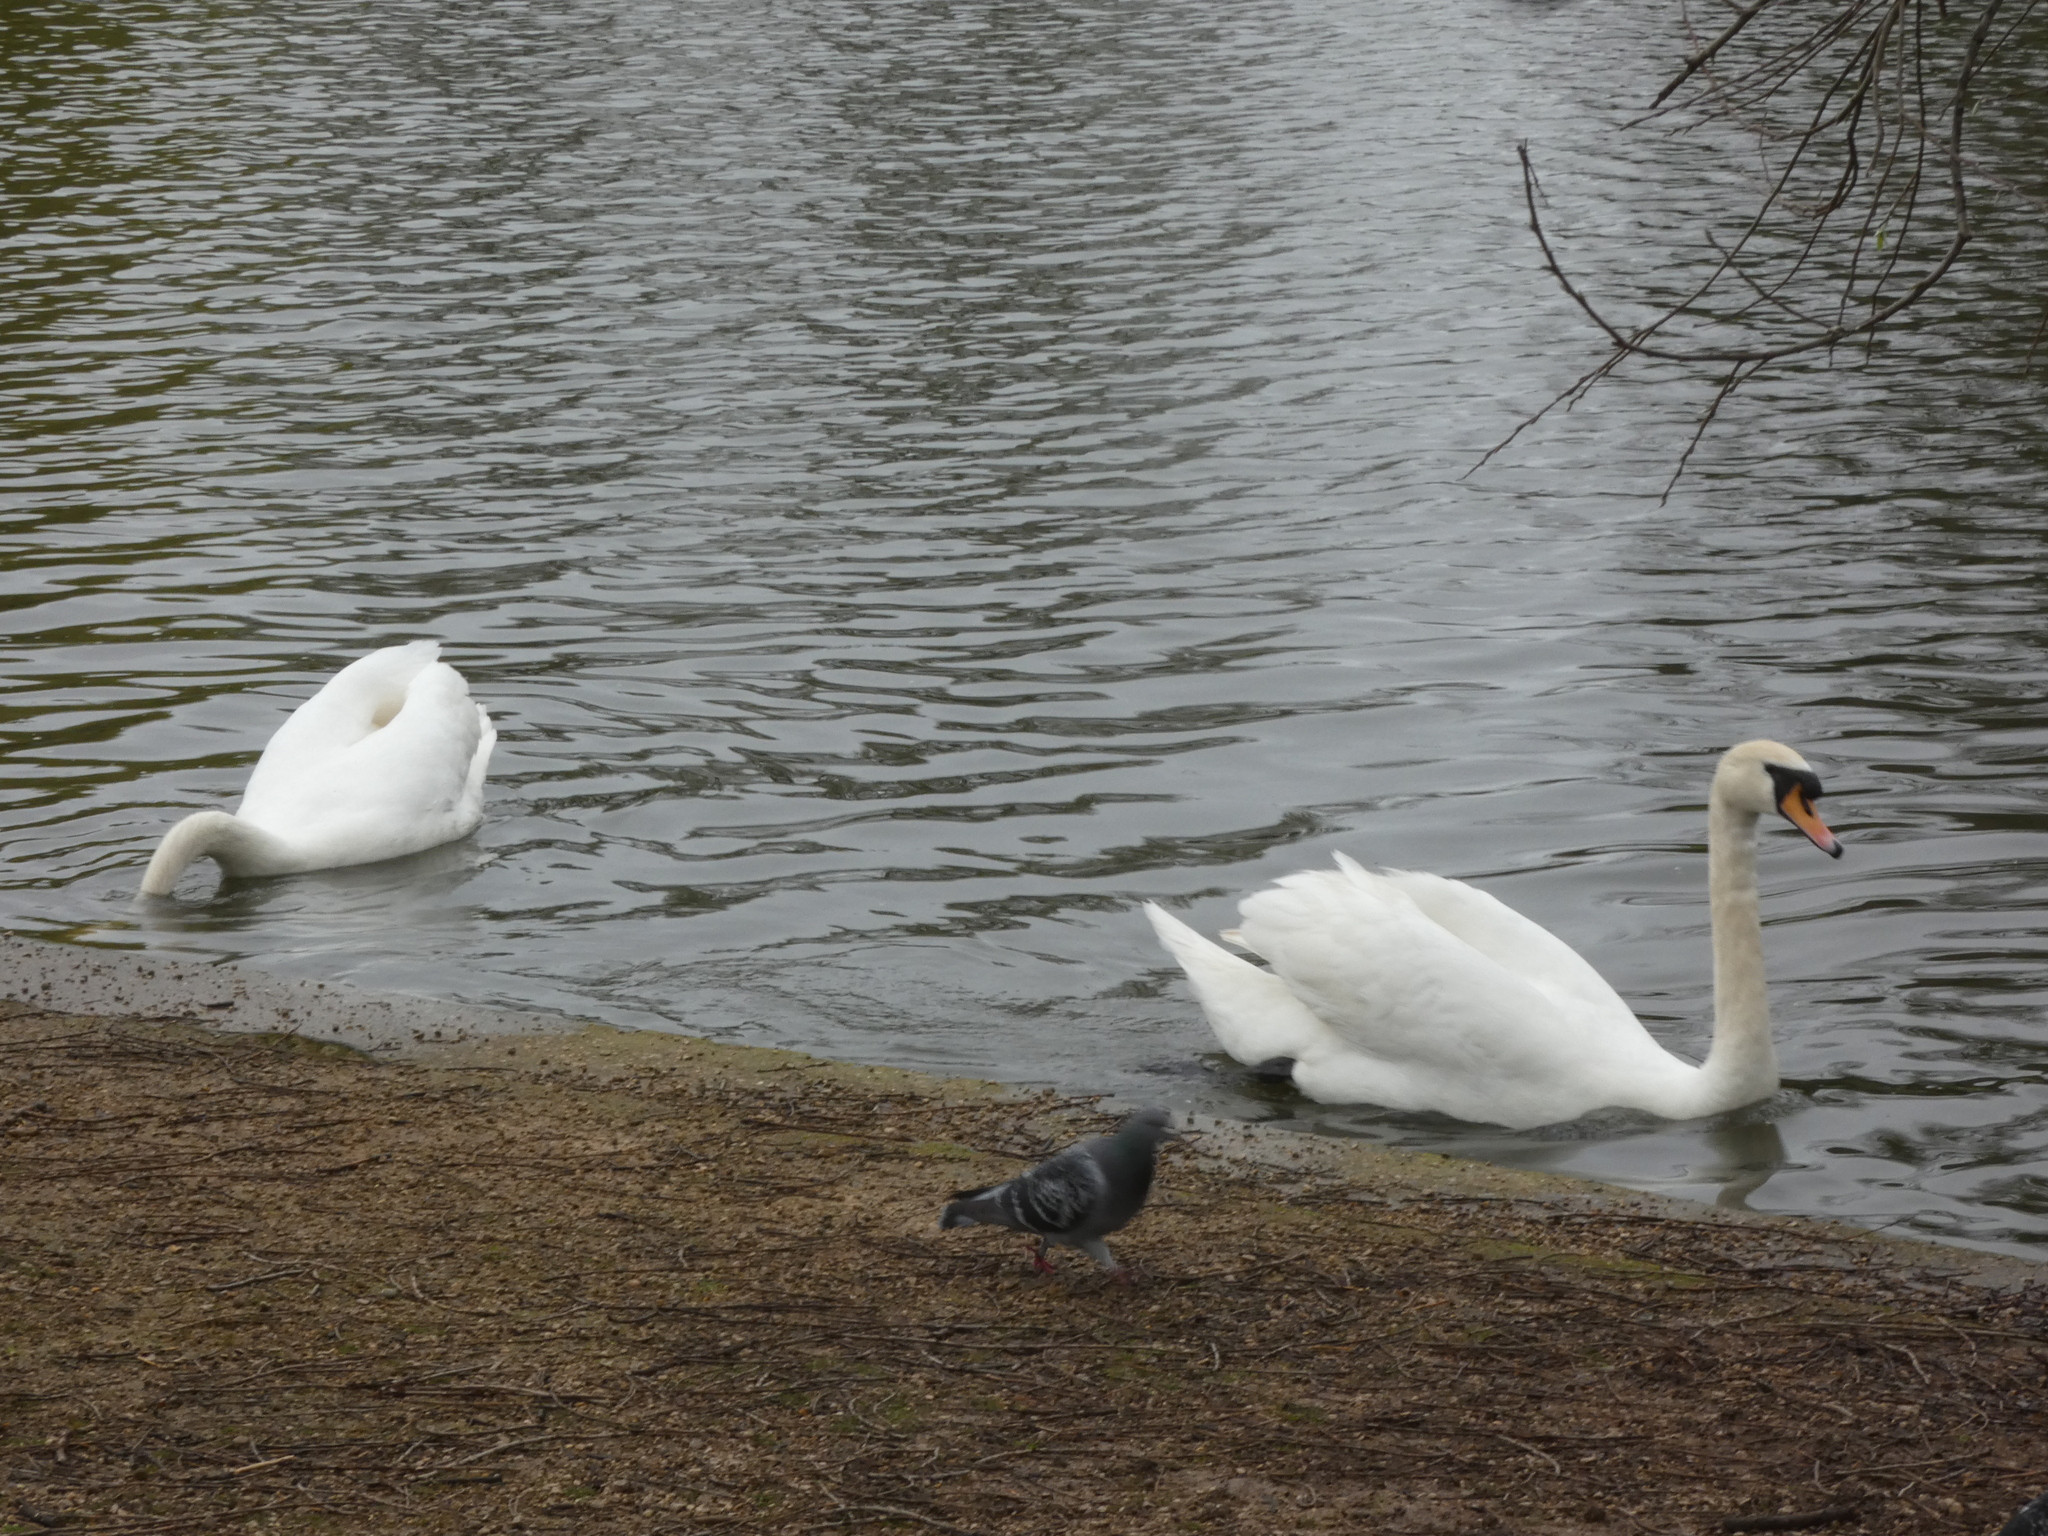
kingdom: Animalia
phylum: Chordata
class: Aves
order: Anseriformes
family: Anatidae
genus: Cygnus
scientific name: Cygnus olor
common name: Mute swan
